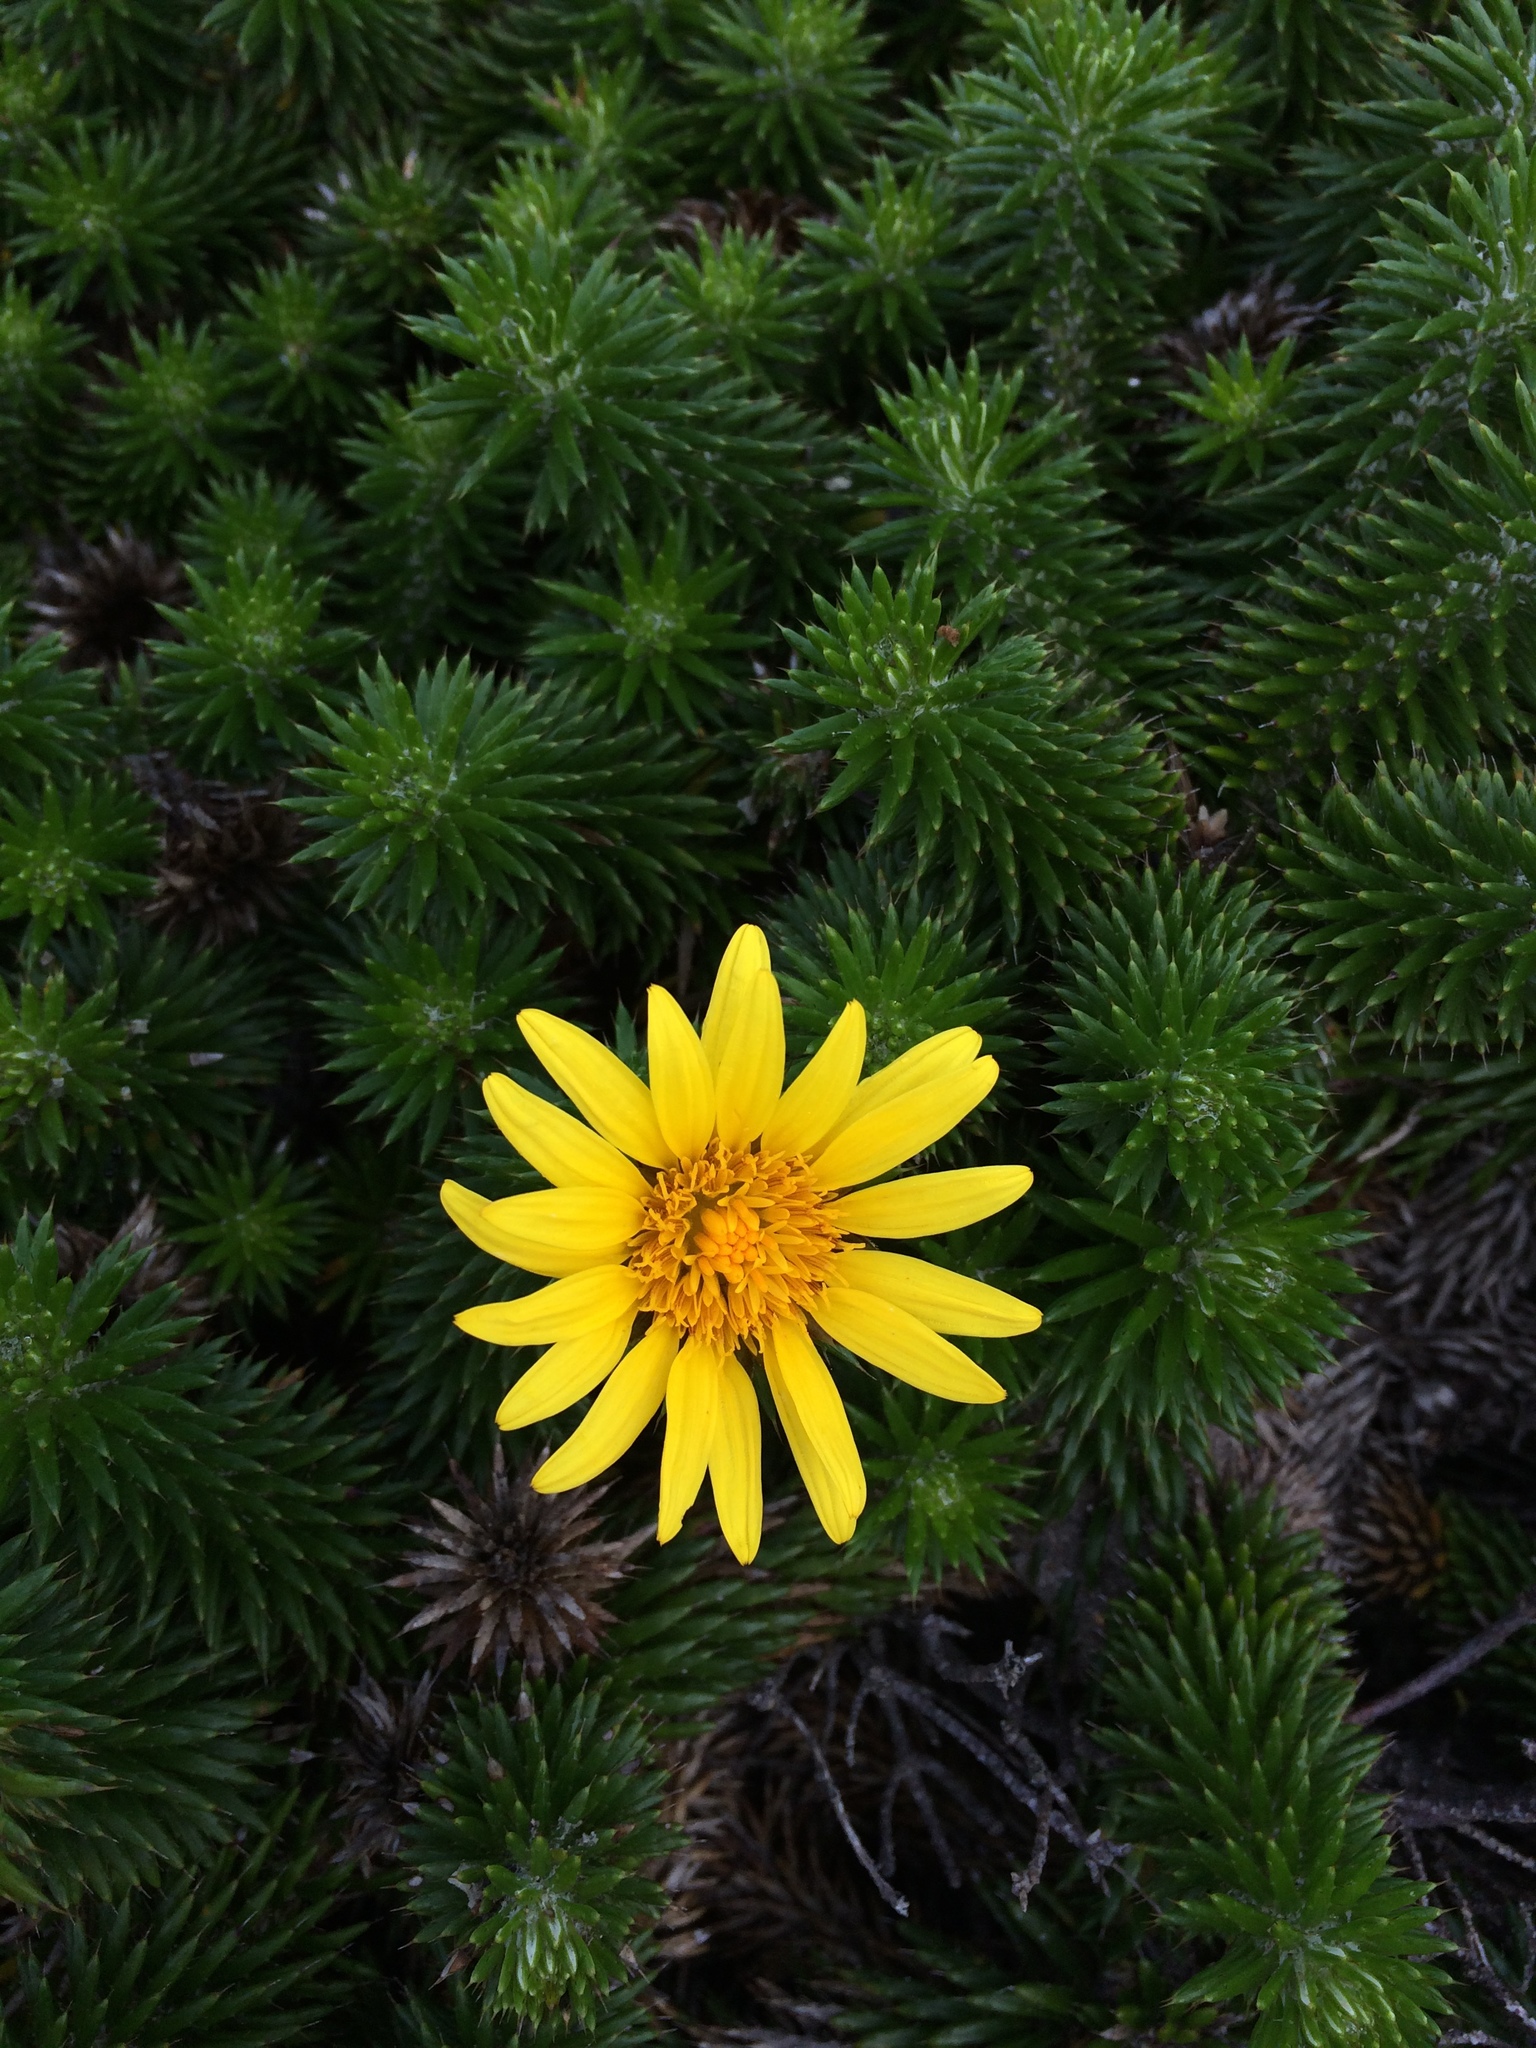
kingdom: Plantae
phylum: Tracheophyta
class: Magnoliopsida
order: Asterales
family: Asteraceae
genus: Cullumia
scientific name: Cullumia squarrosa
